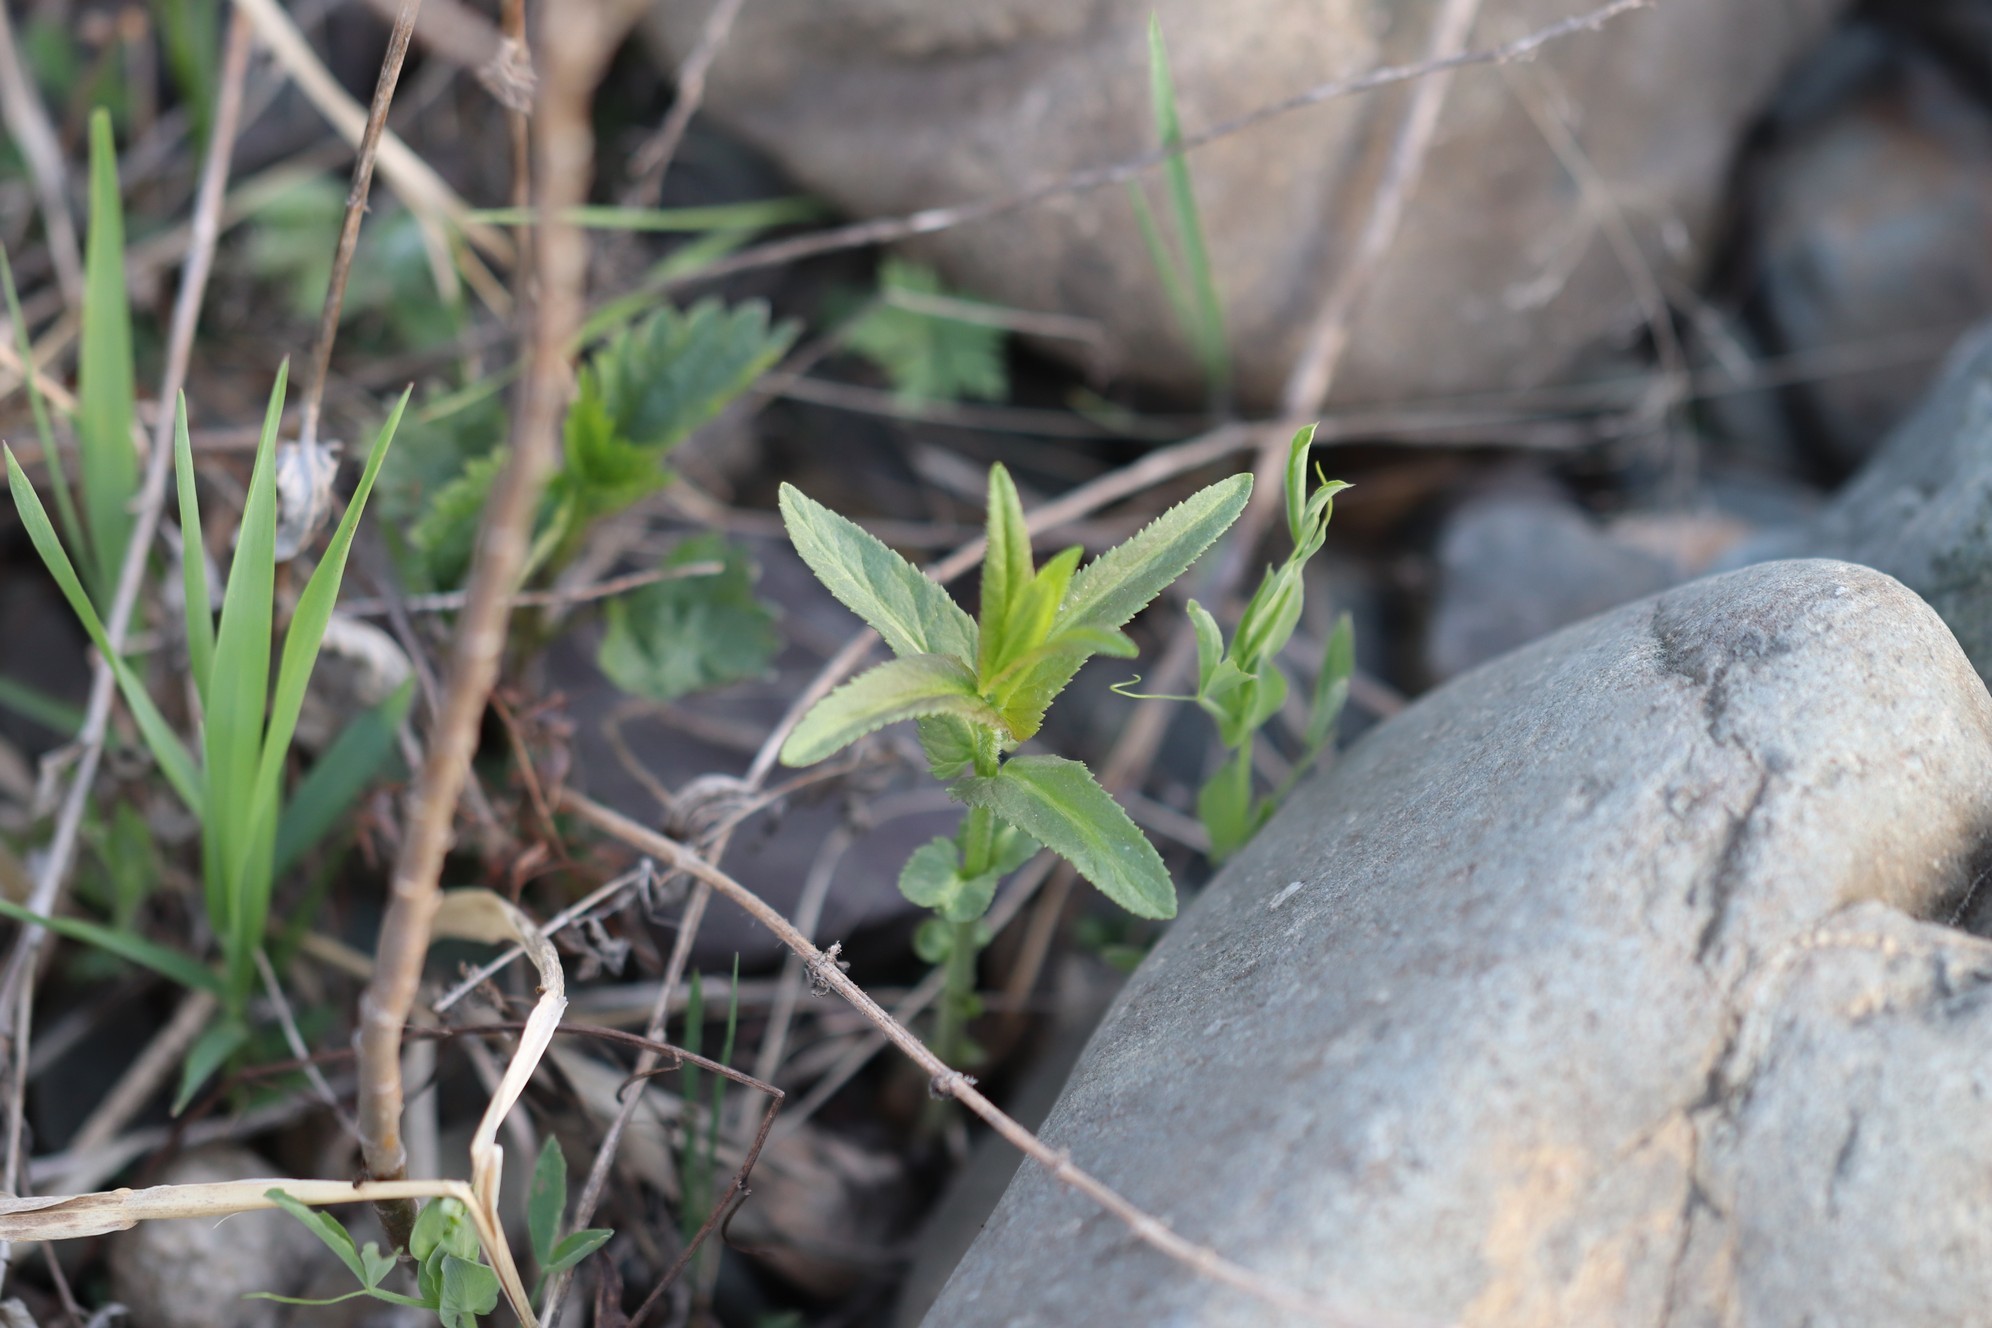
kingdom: Plantae
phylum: Tracheophyta
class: Magnoliopsida
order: Lamiales
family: Plantaginaceae
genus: Veronica
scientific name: Veronica longifolia
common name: Garden speedwell
